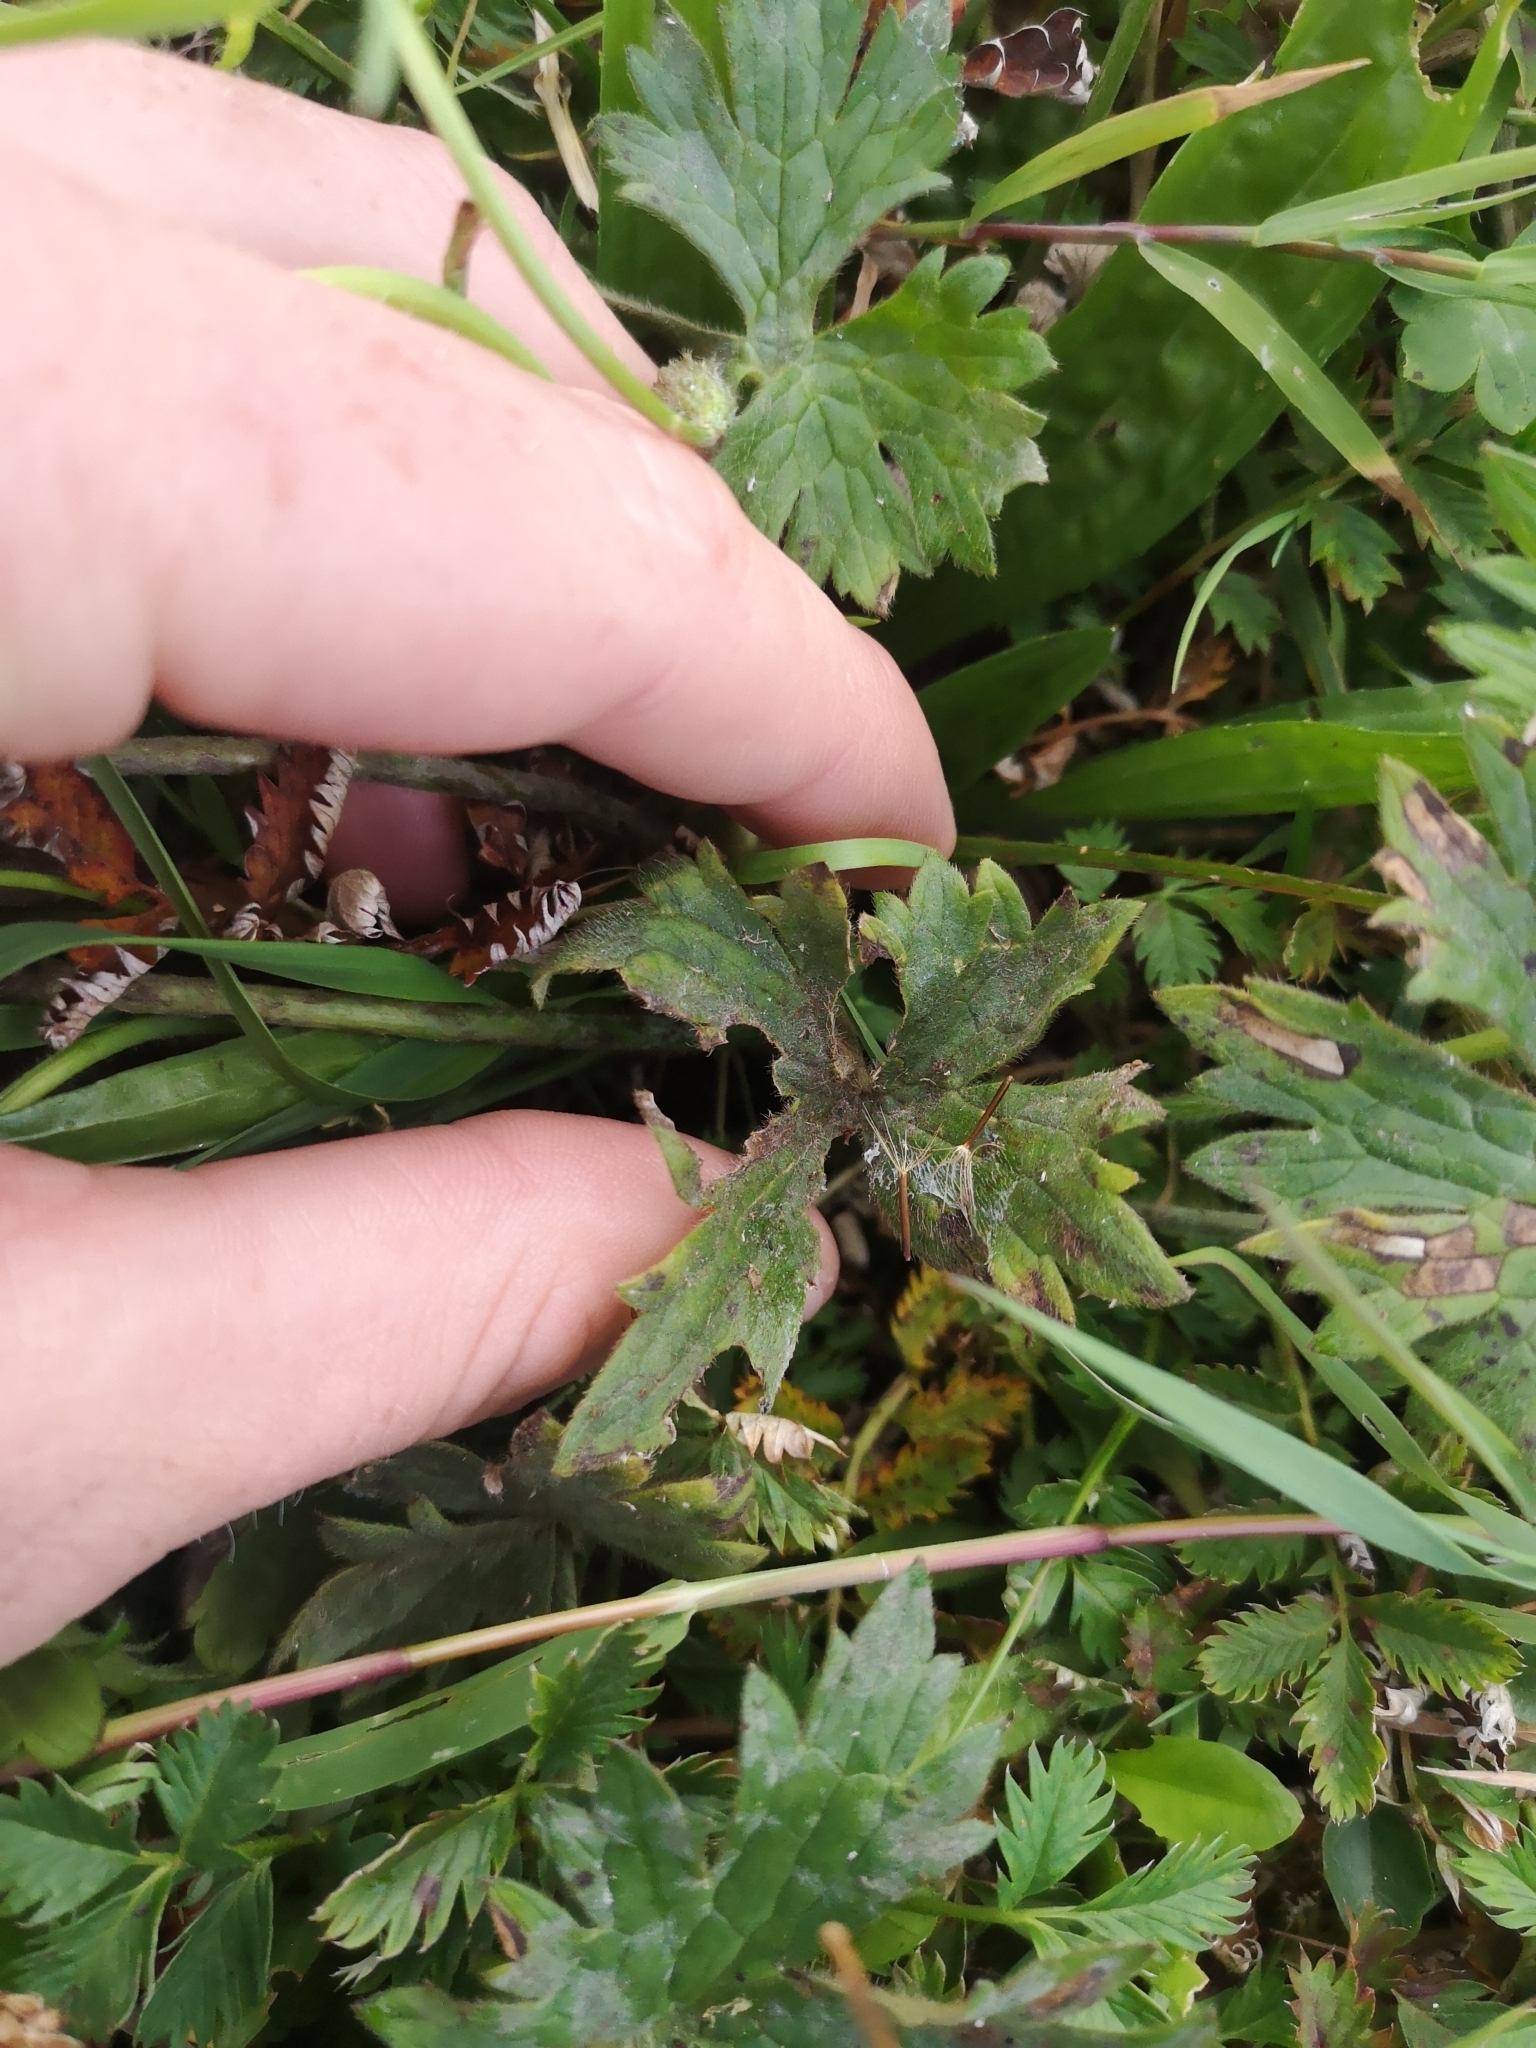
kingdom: Plantae
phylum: Tracheophyta
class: Magnoliopsida
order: Ranunculales
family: Ranunculaceae
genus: Ranunculus
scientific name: Ranunculus acris
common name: Meadow buttercup
